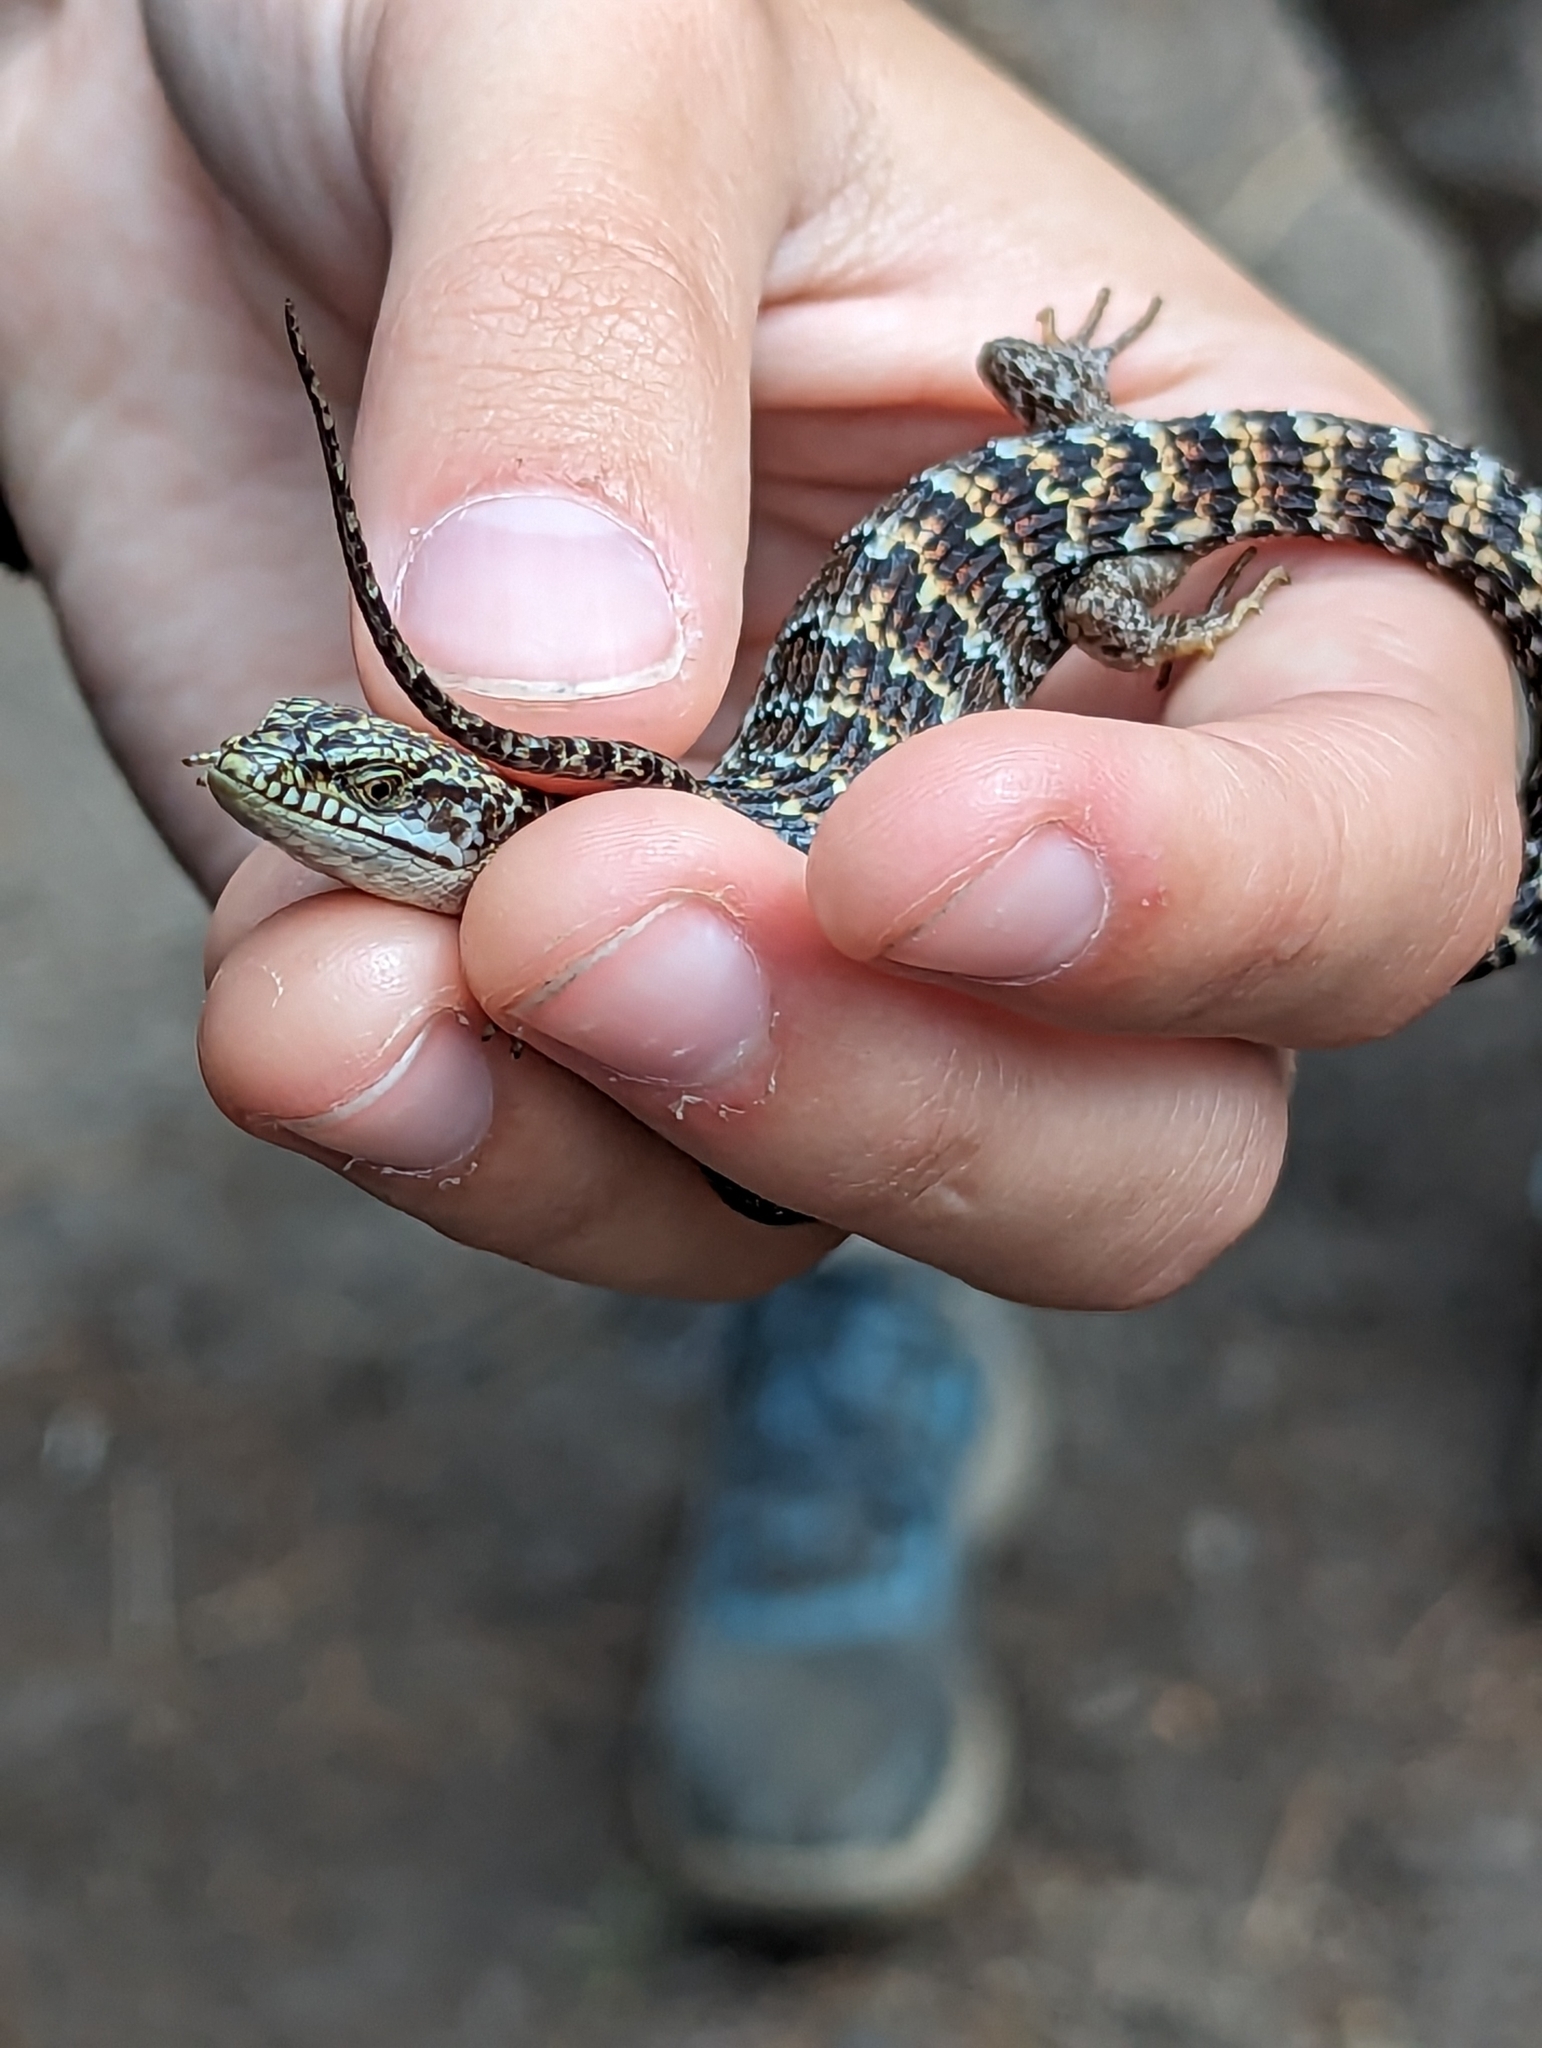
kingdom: Animalia
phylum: Chordata
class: Squamata
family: Anguidae
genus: Elgaria
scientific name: Elgaria multicarinata
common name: Southern alligator lizard
